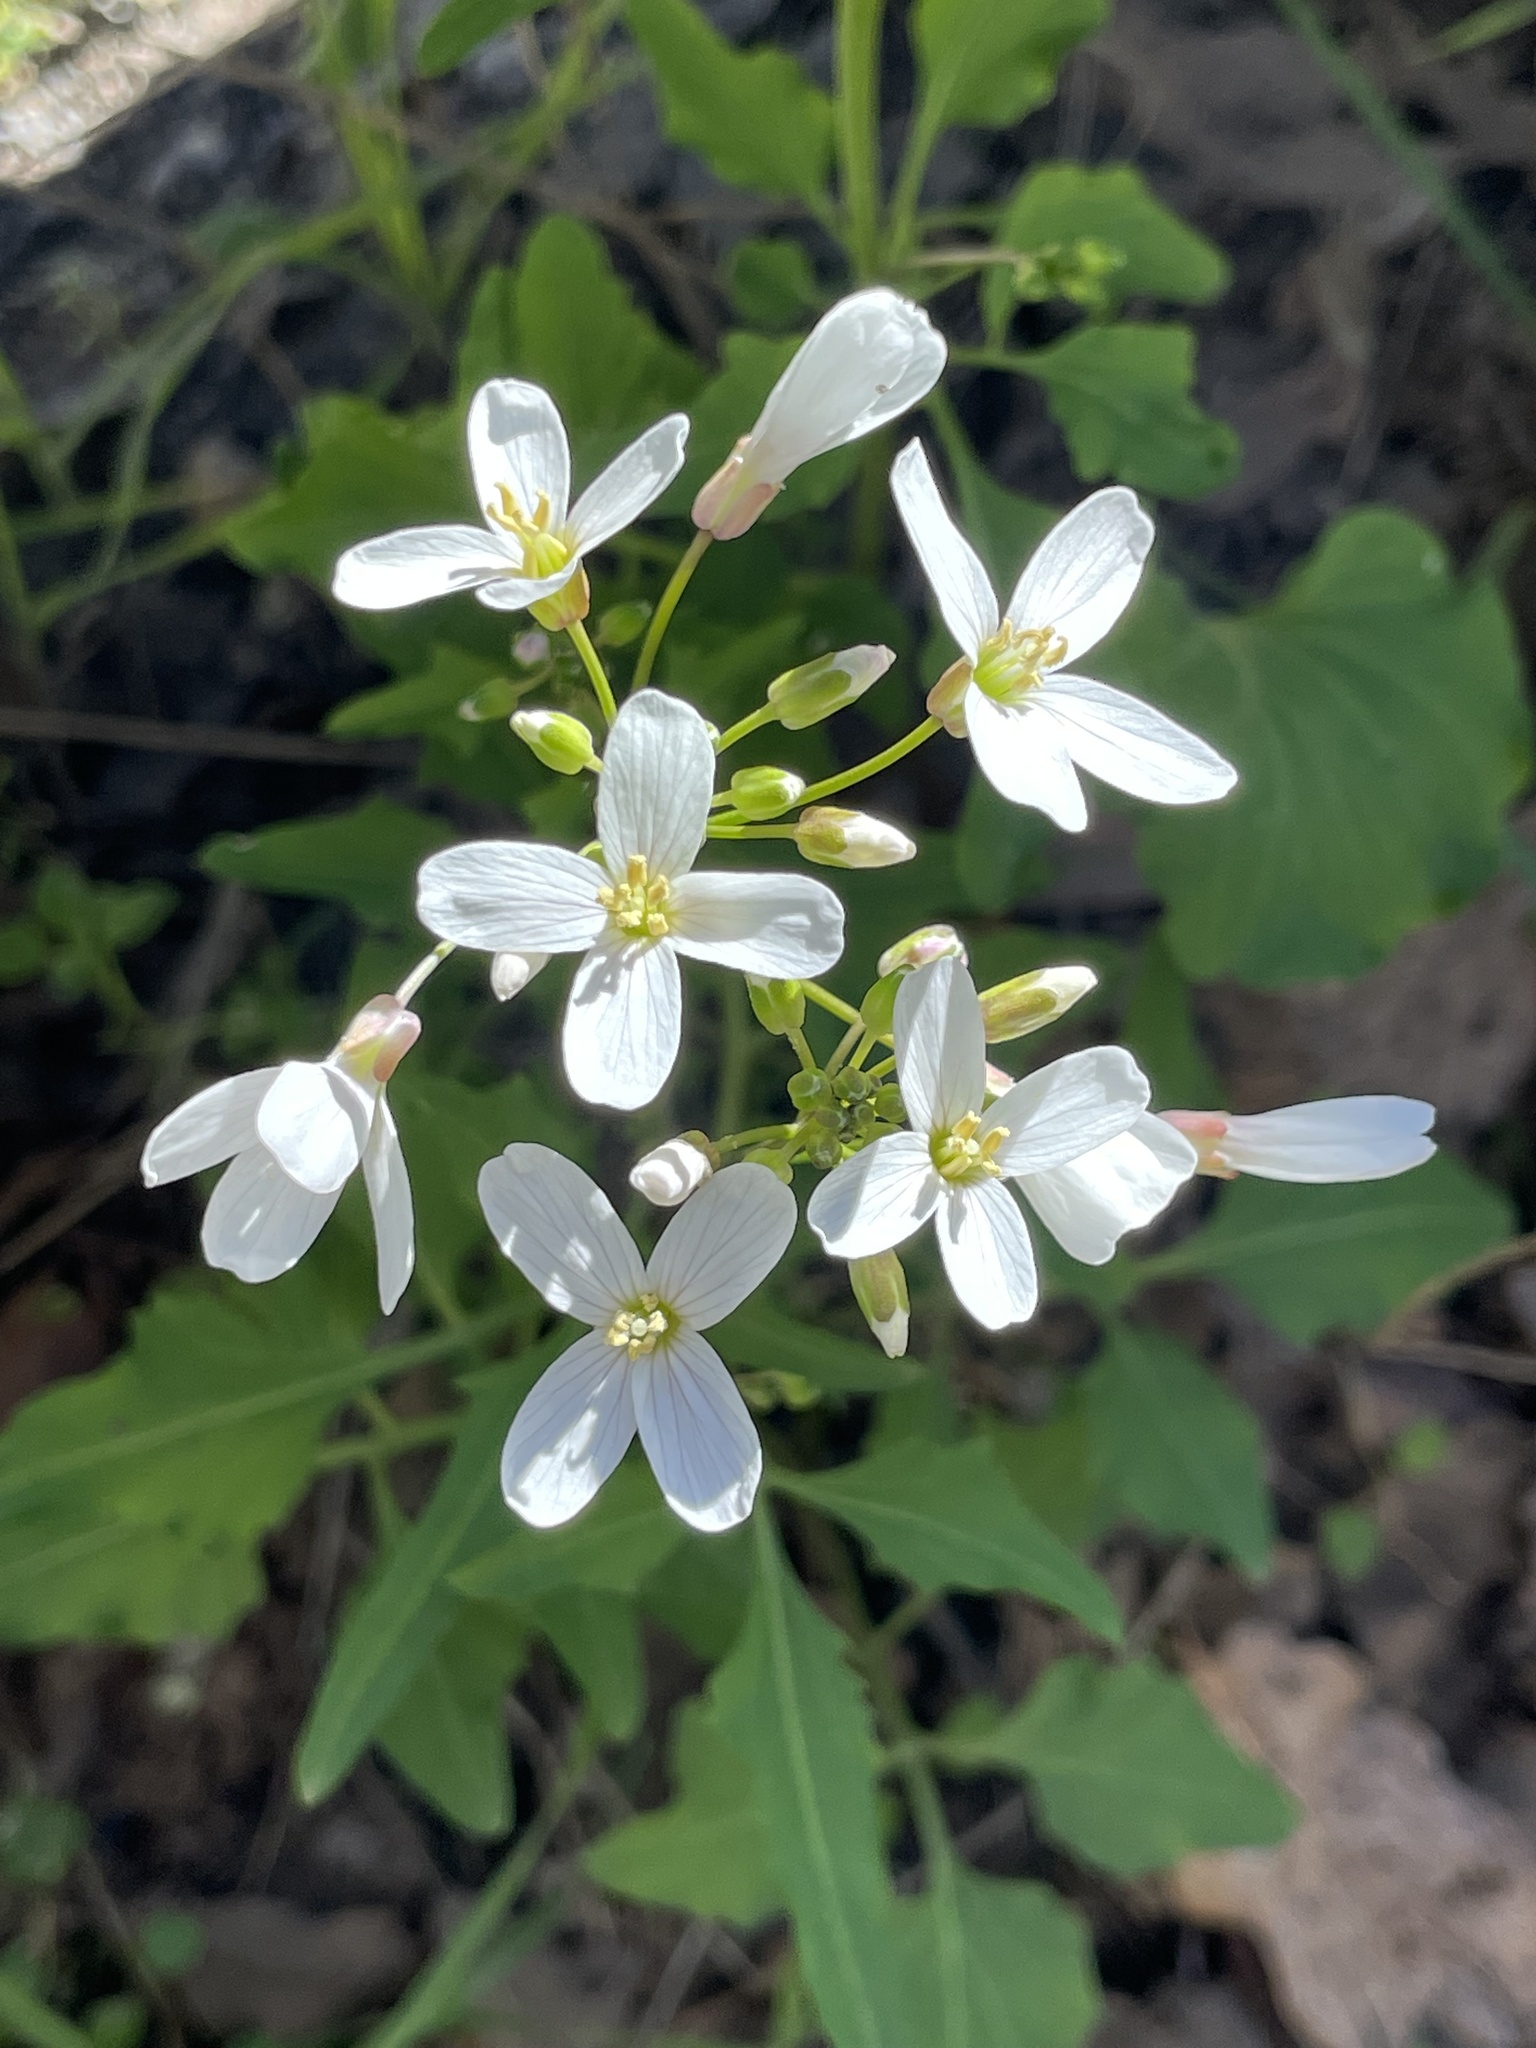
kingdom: Plantae
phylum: Tracheophyta
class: Magnoliopsida
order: Brassicales
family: Brassicaceae
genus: Cardamine
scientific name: Cardamine californica
